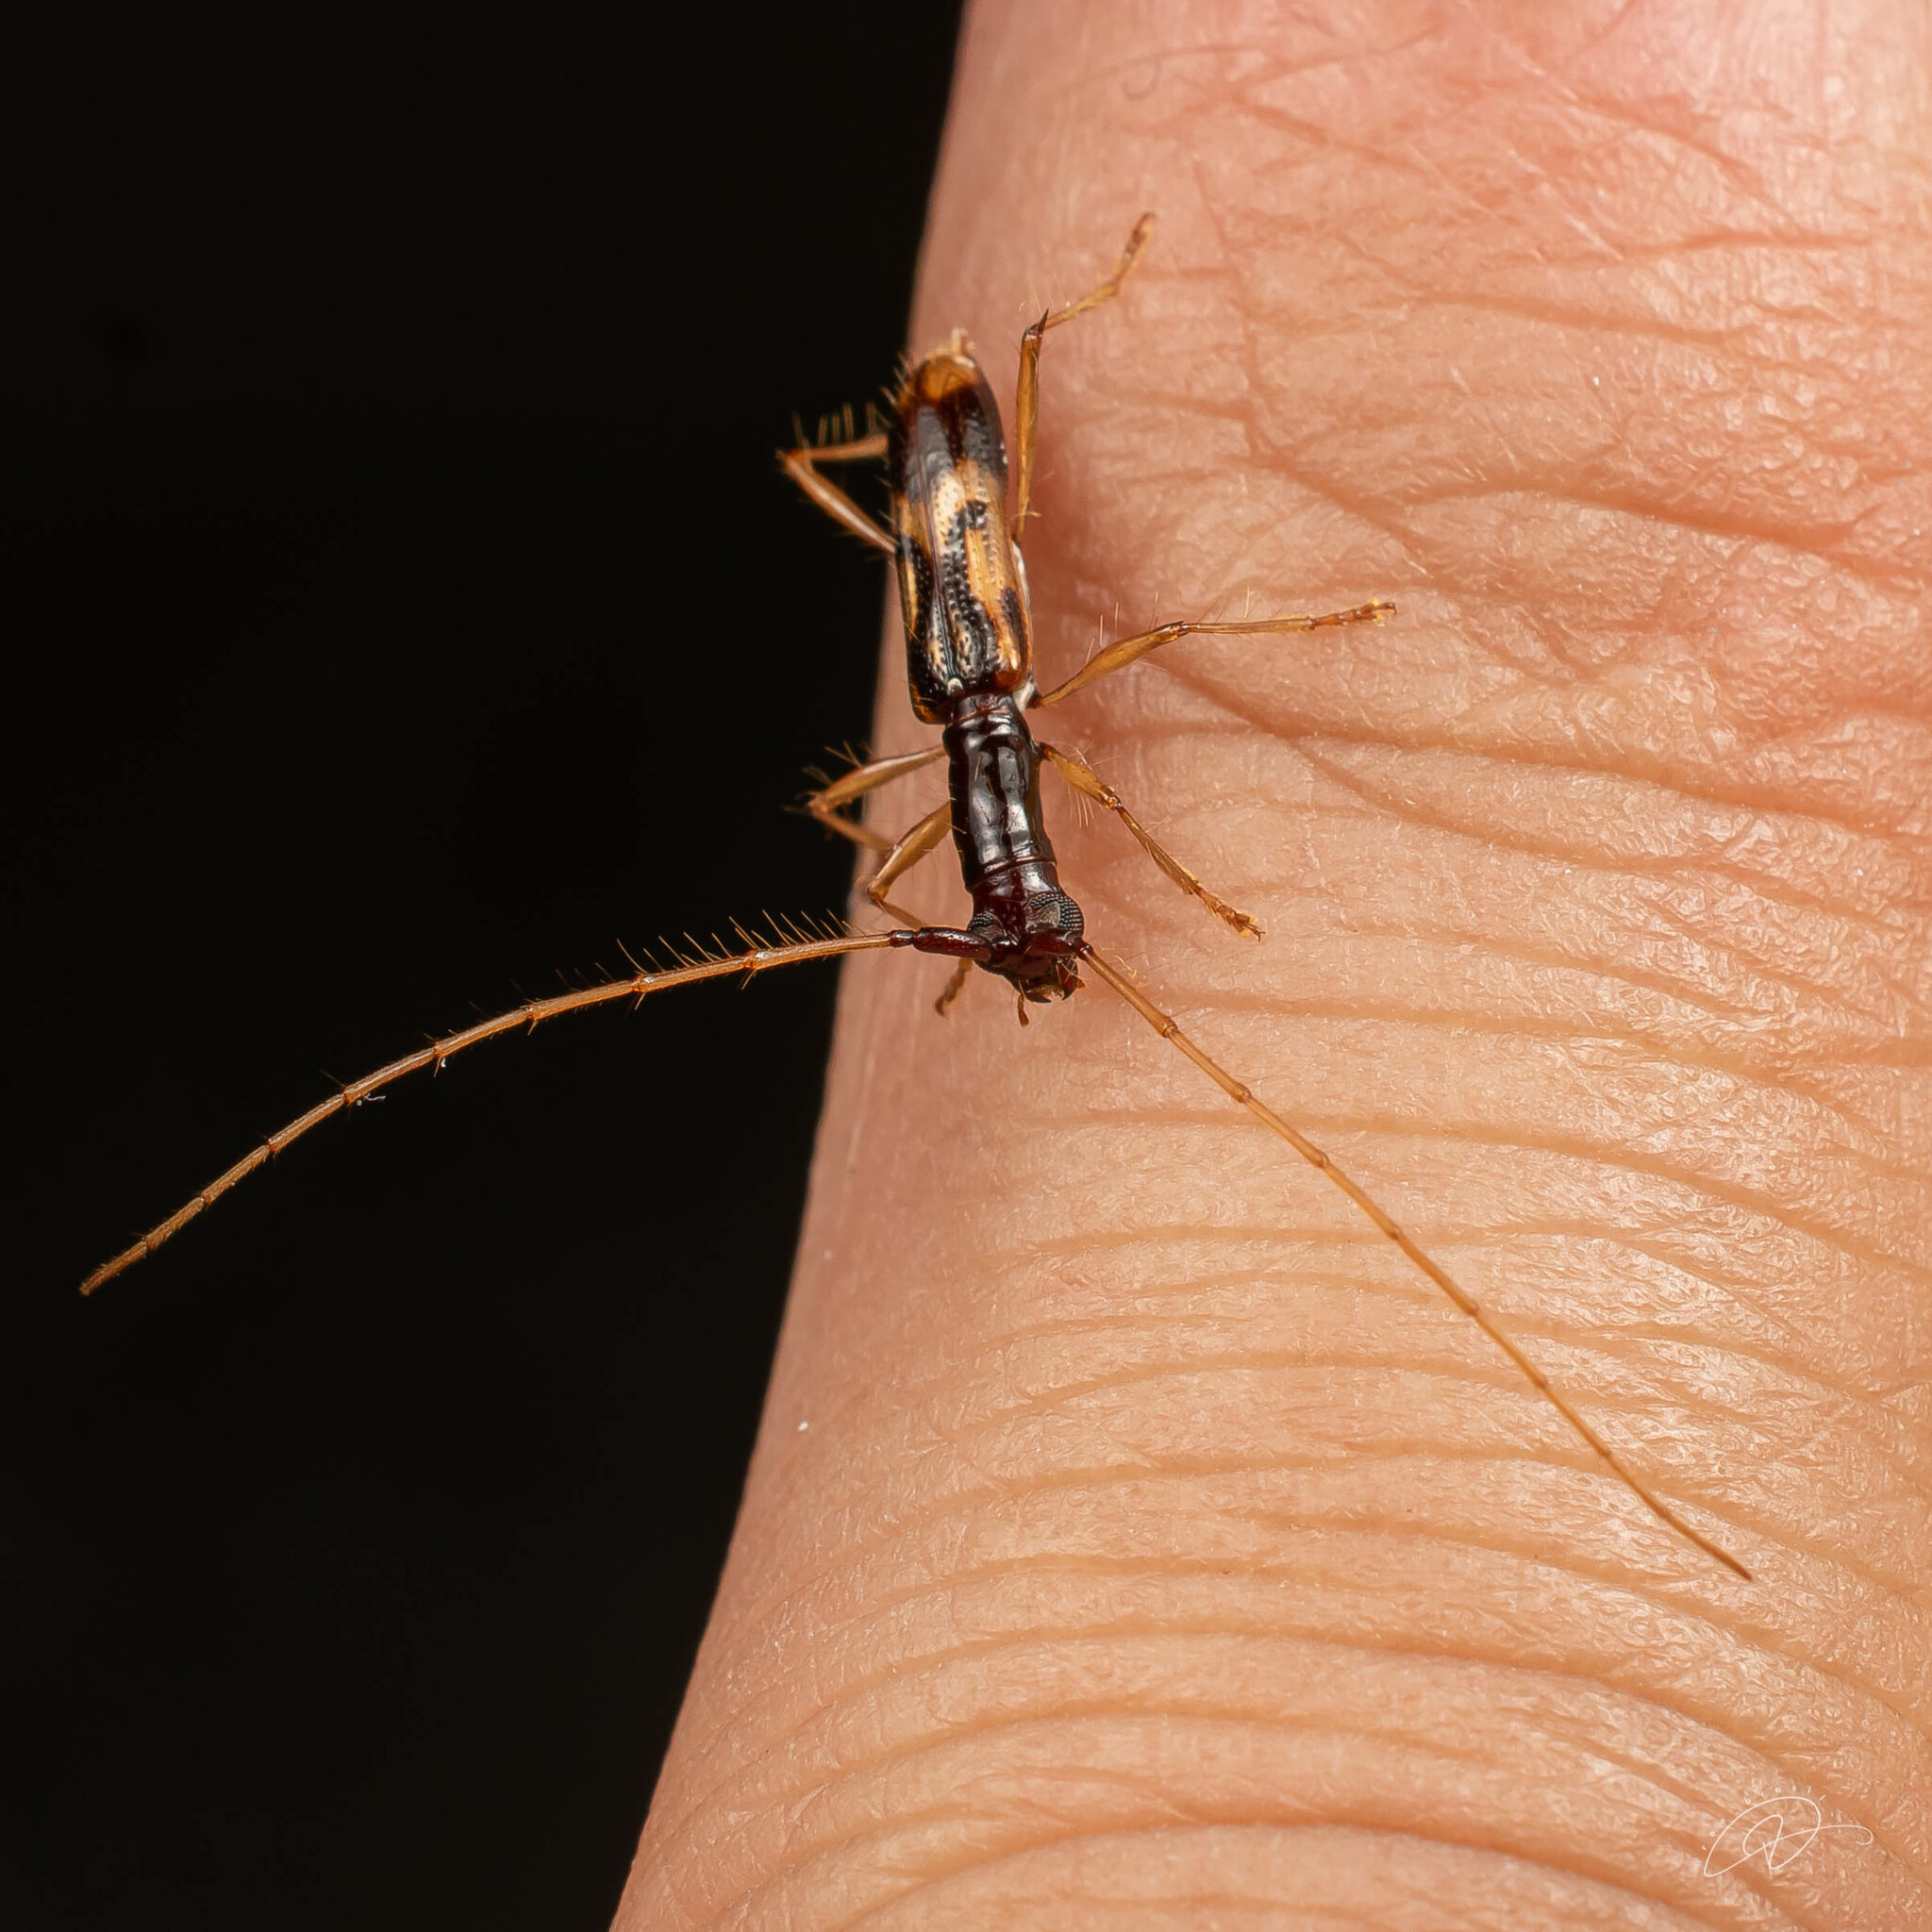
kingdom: Animalia
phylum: Arthropoda
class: Insecta
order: Coleoptera
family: Cerambycidae
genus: Glyptoscapus
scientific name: Glyptoscapus pallidulus
